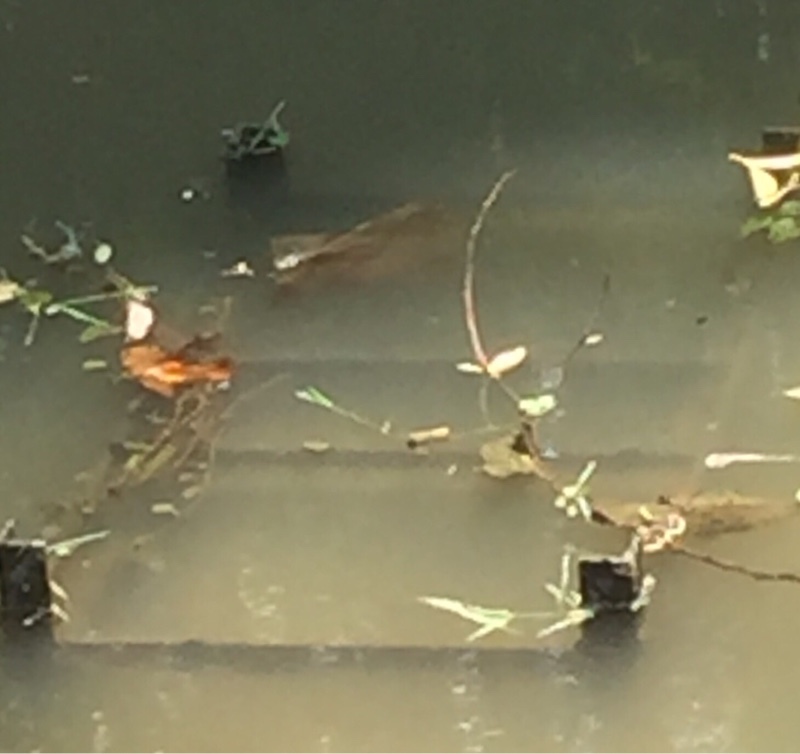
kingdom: Animalia
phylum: Arthropoda
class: Insecta
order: Odonata
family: Libellulidae
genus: Brachythemis
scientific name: Brachythemis contaminata
